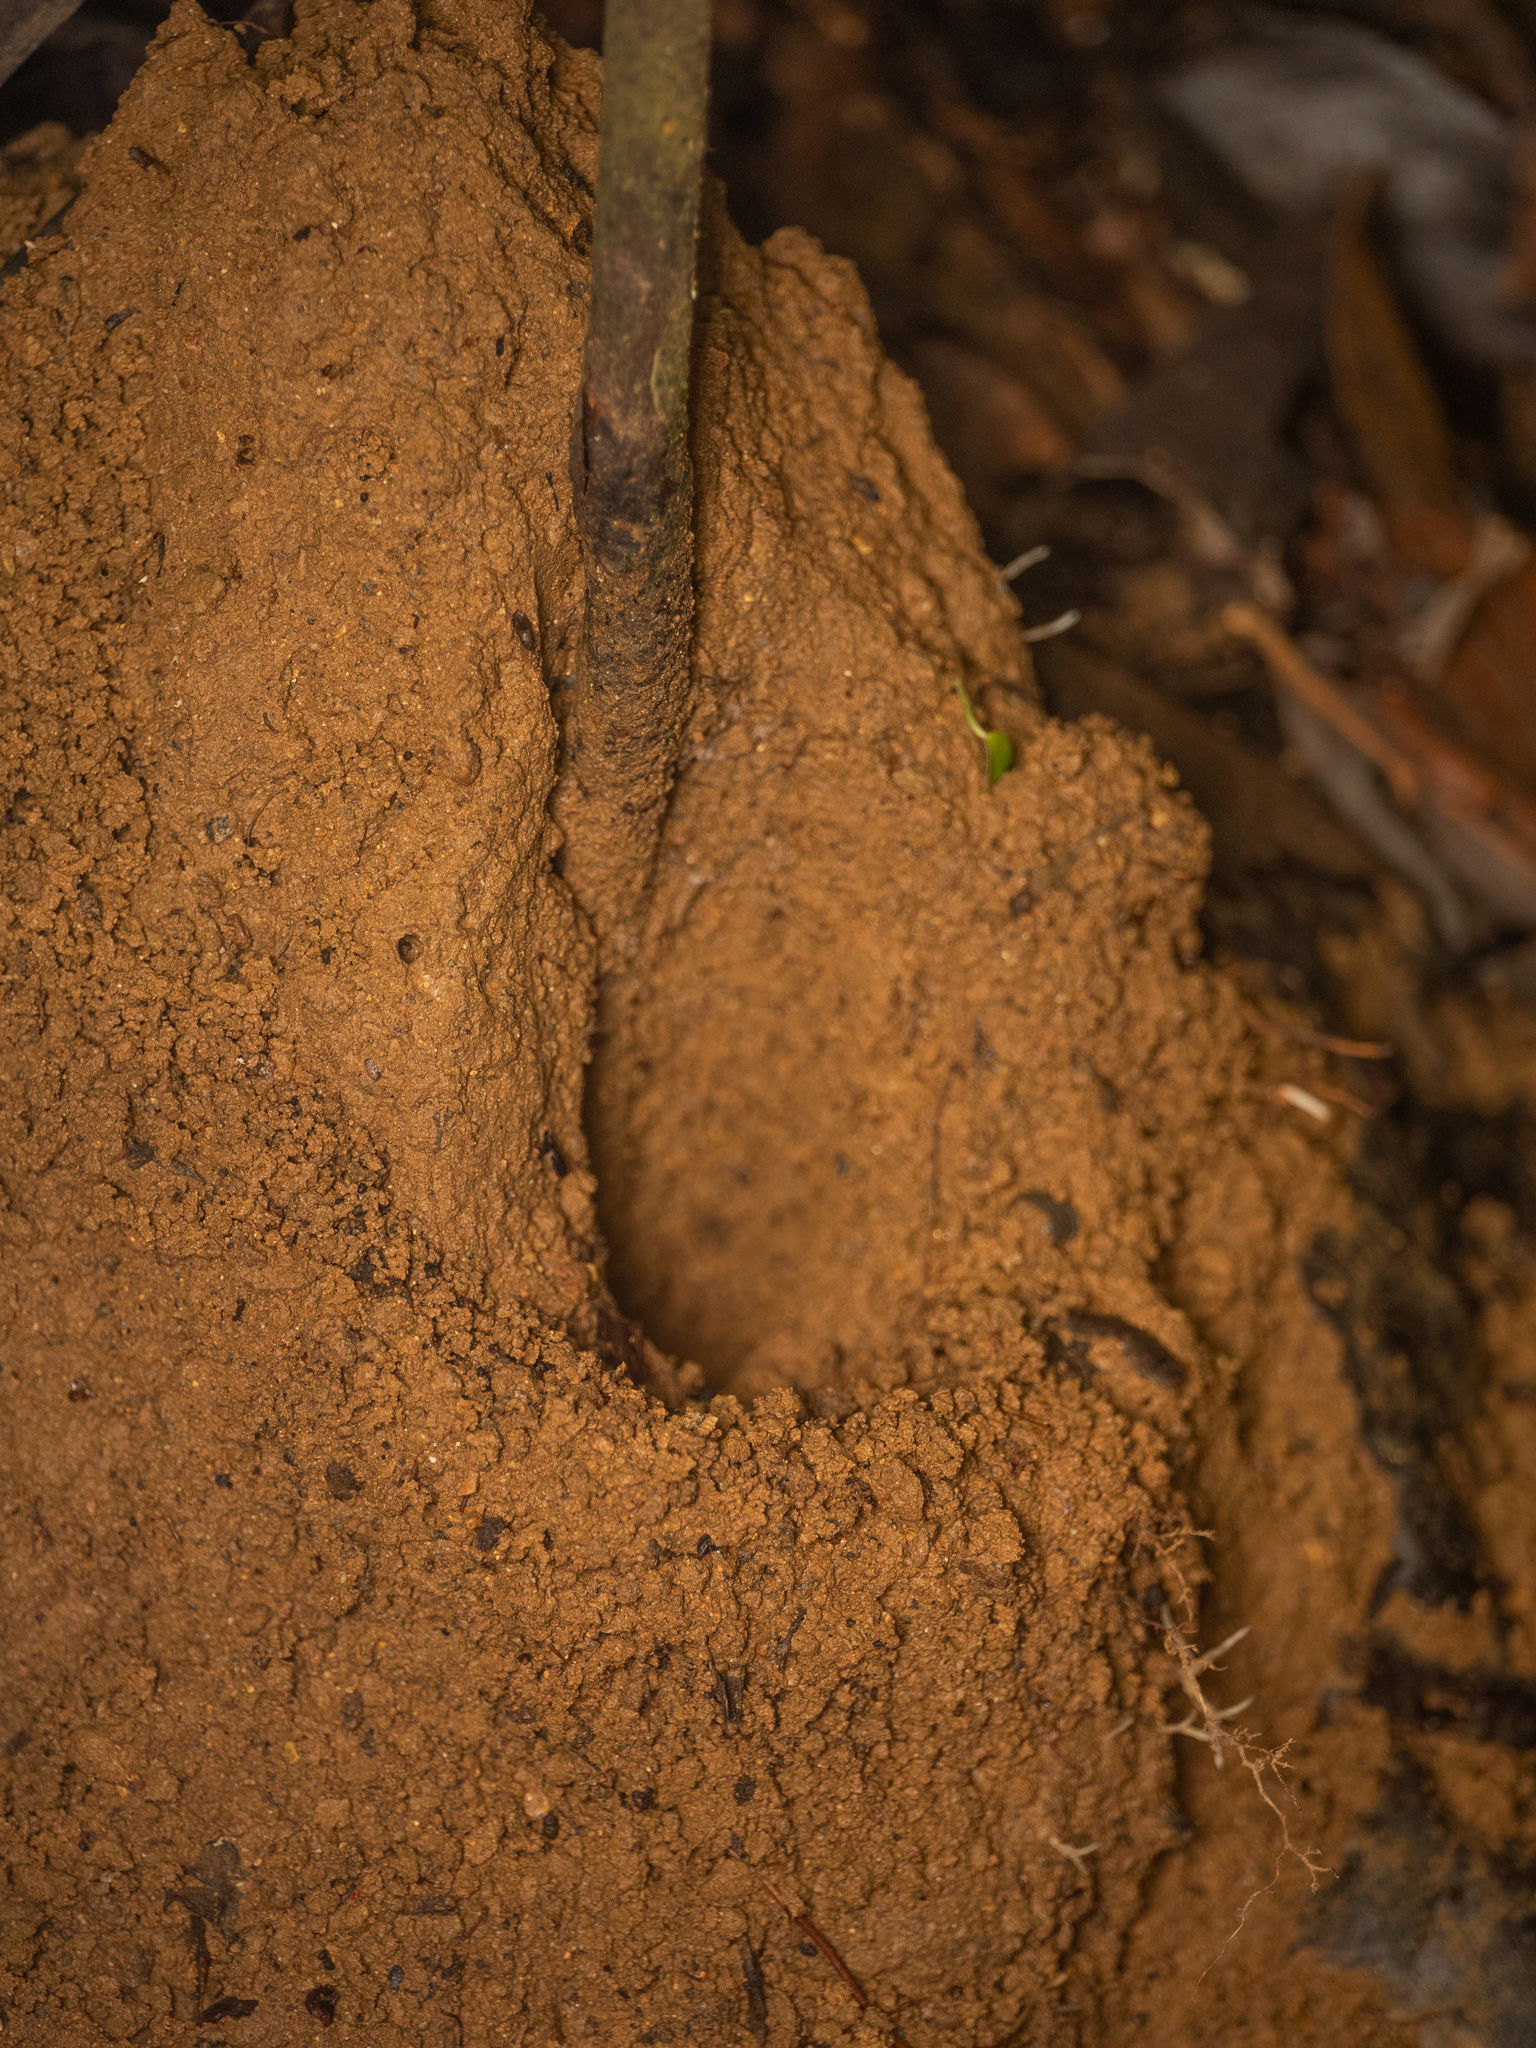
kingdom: Animalia
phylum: Arthropoda
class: Insecta
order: Hymenoptera
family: Formicidae
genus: Odontomachus
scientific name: Odontomachus testaceus
